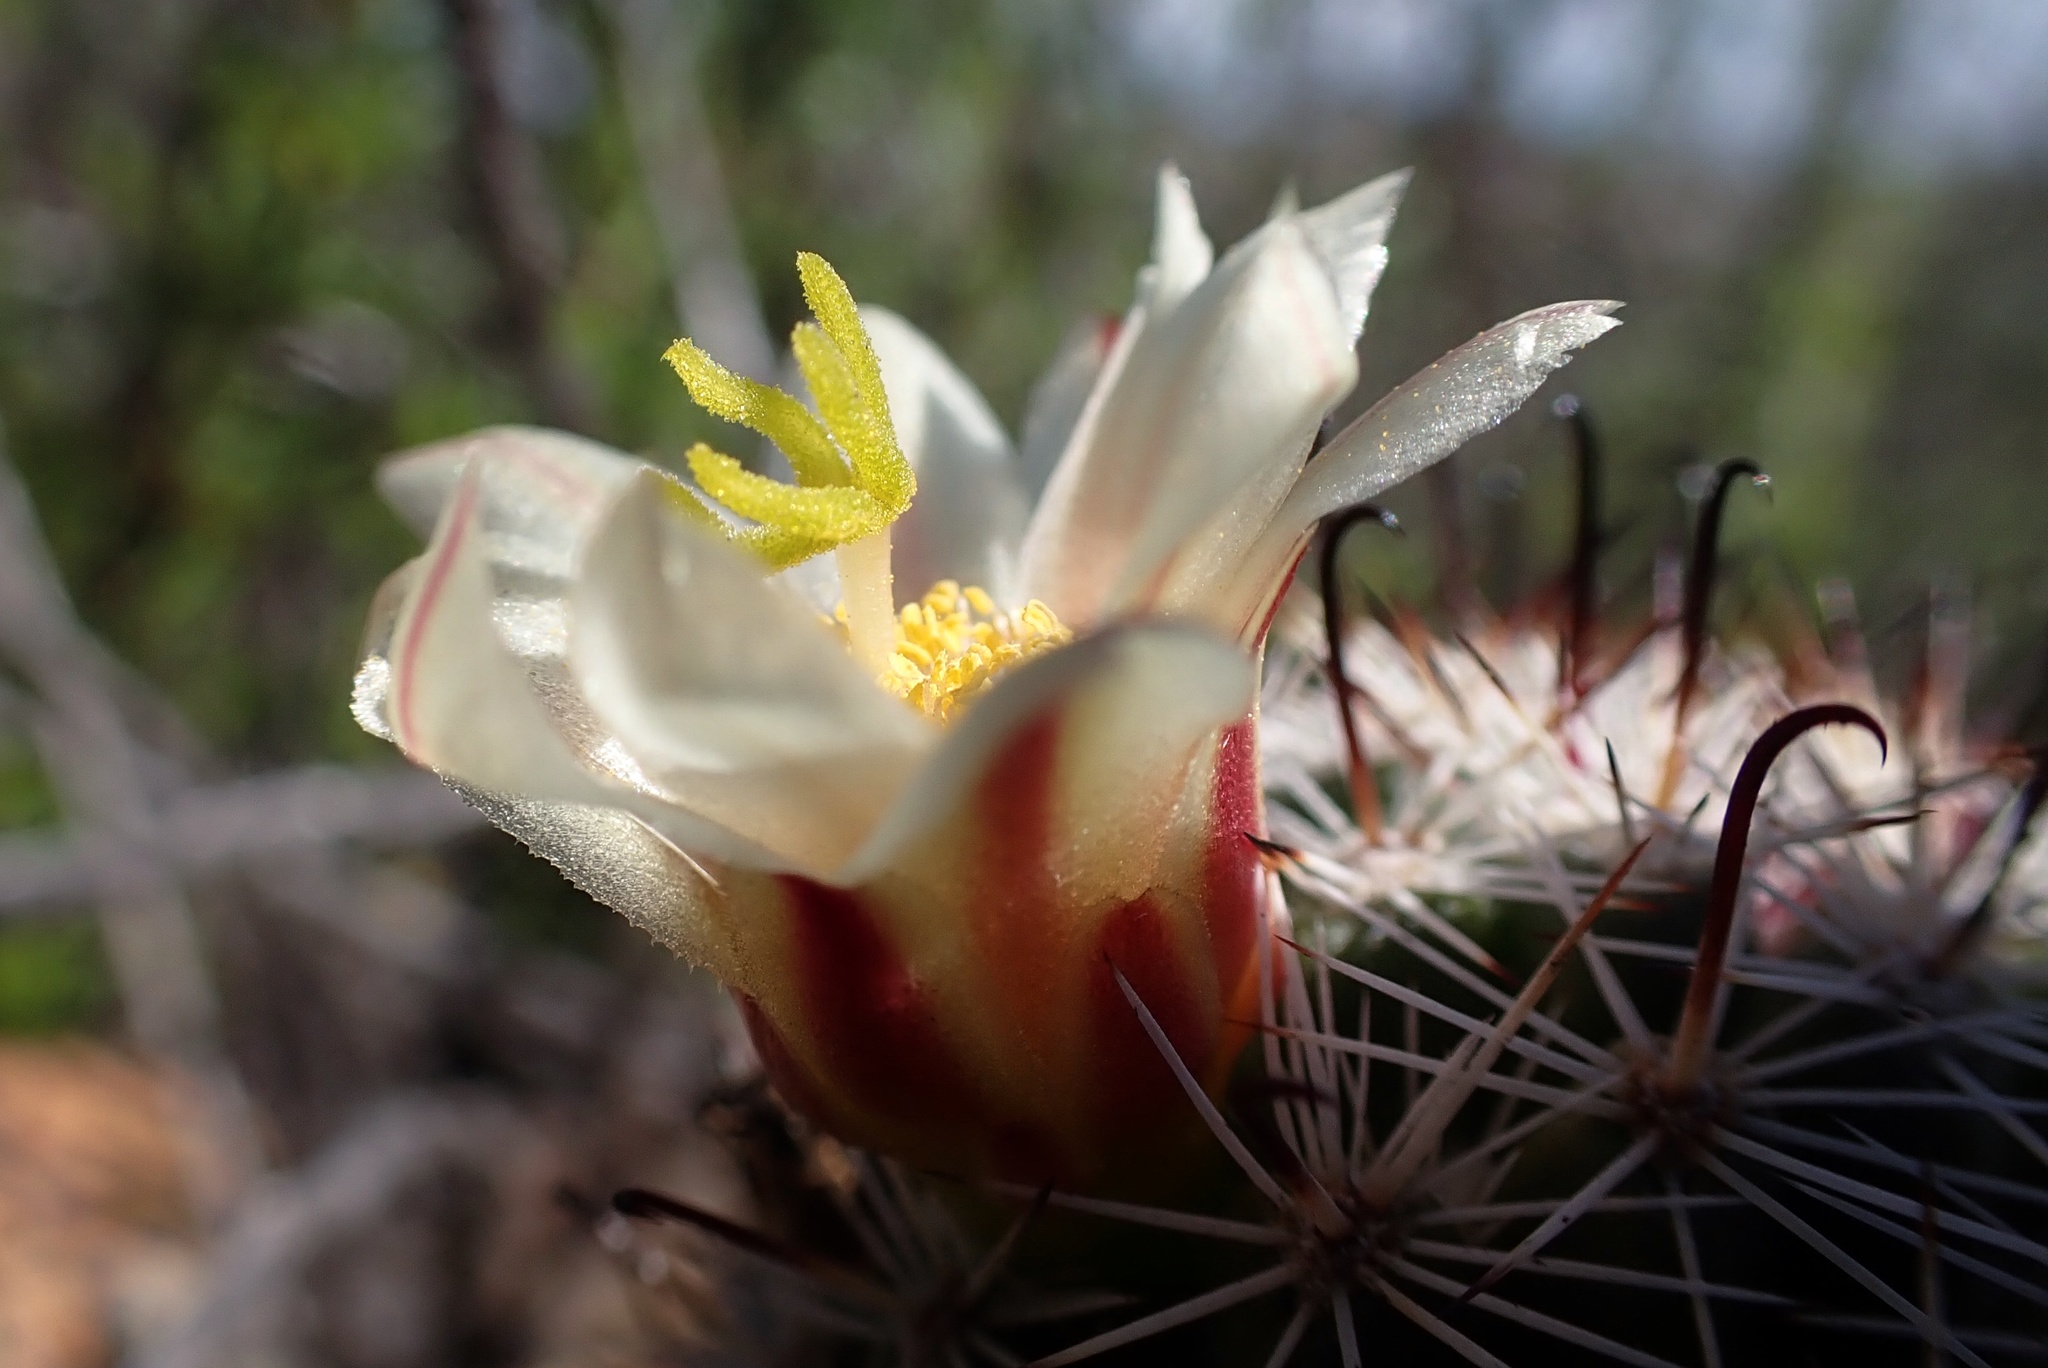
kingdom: Plantae
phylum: Tracheophyta
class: Magnoliopsida
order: Caryophyllales
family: Cactaceae
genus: Cochemiea
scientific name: Cochemiea dioica
